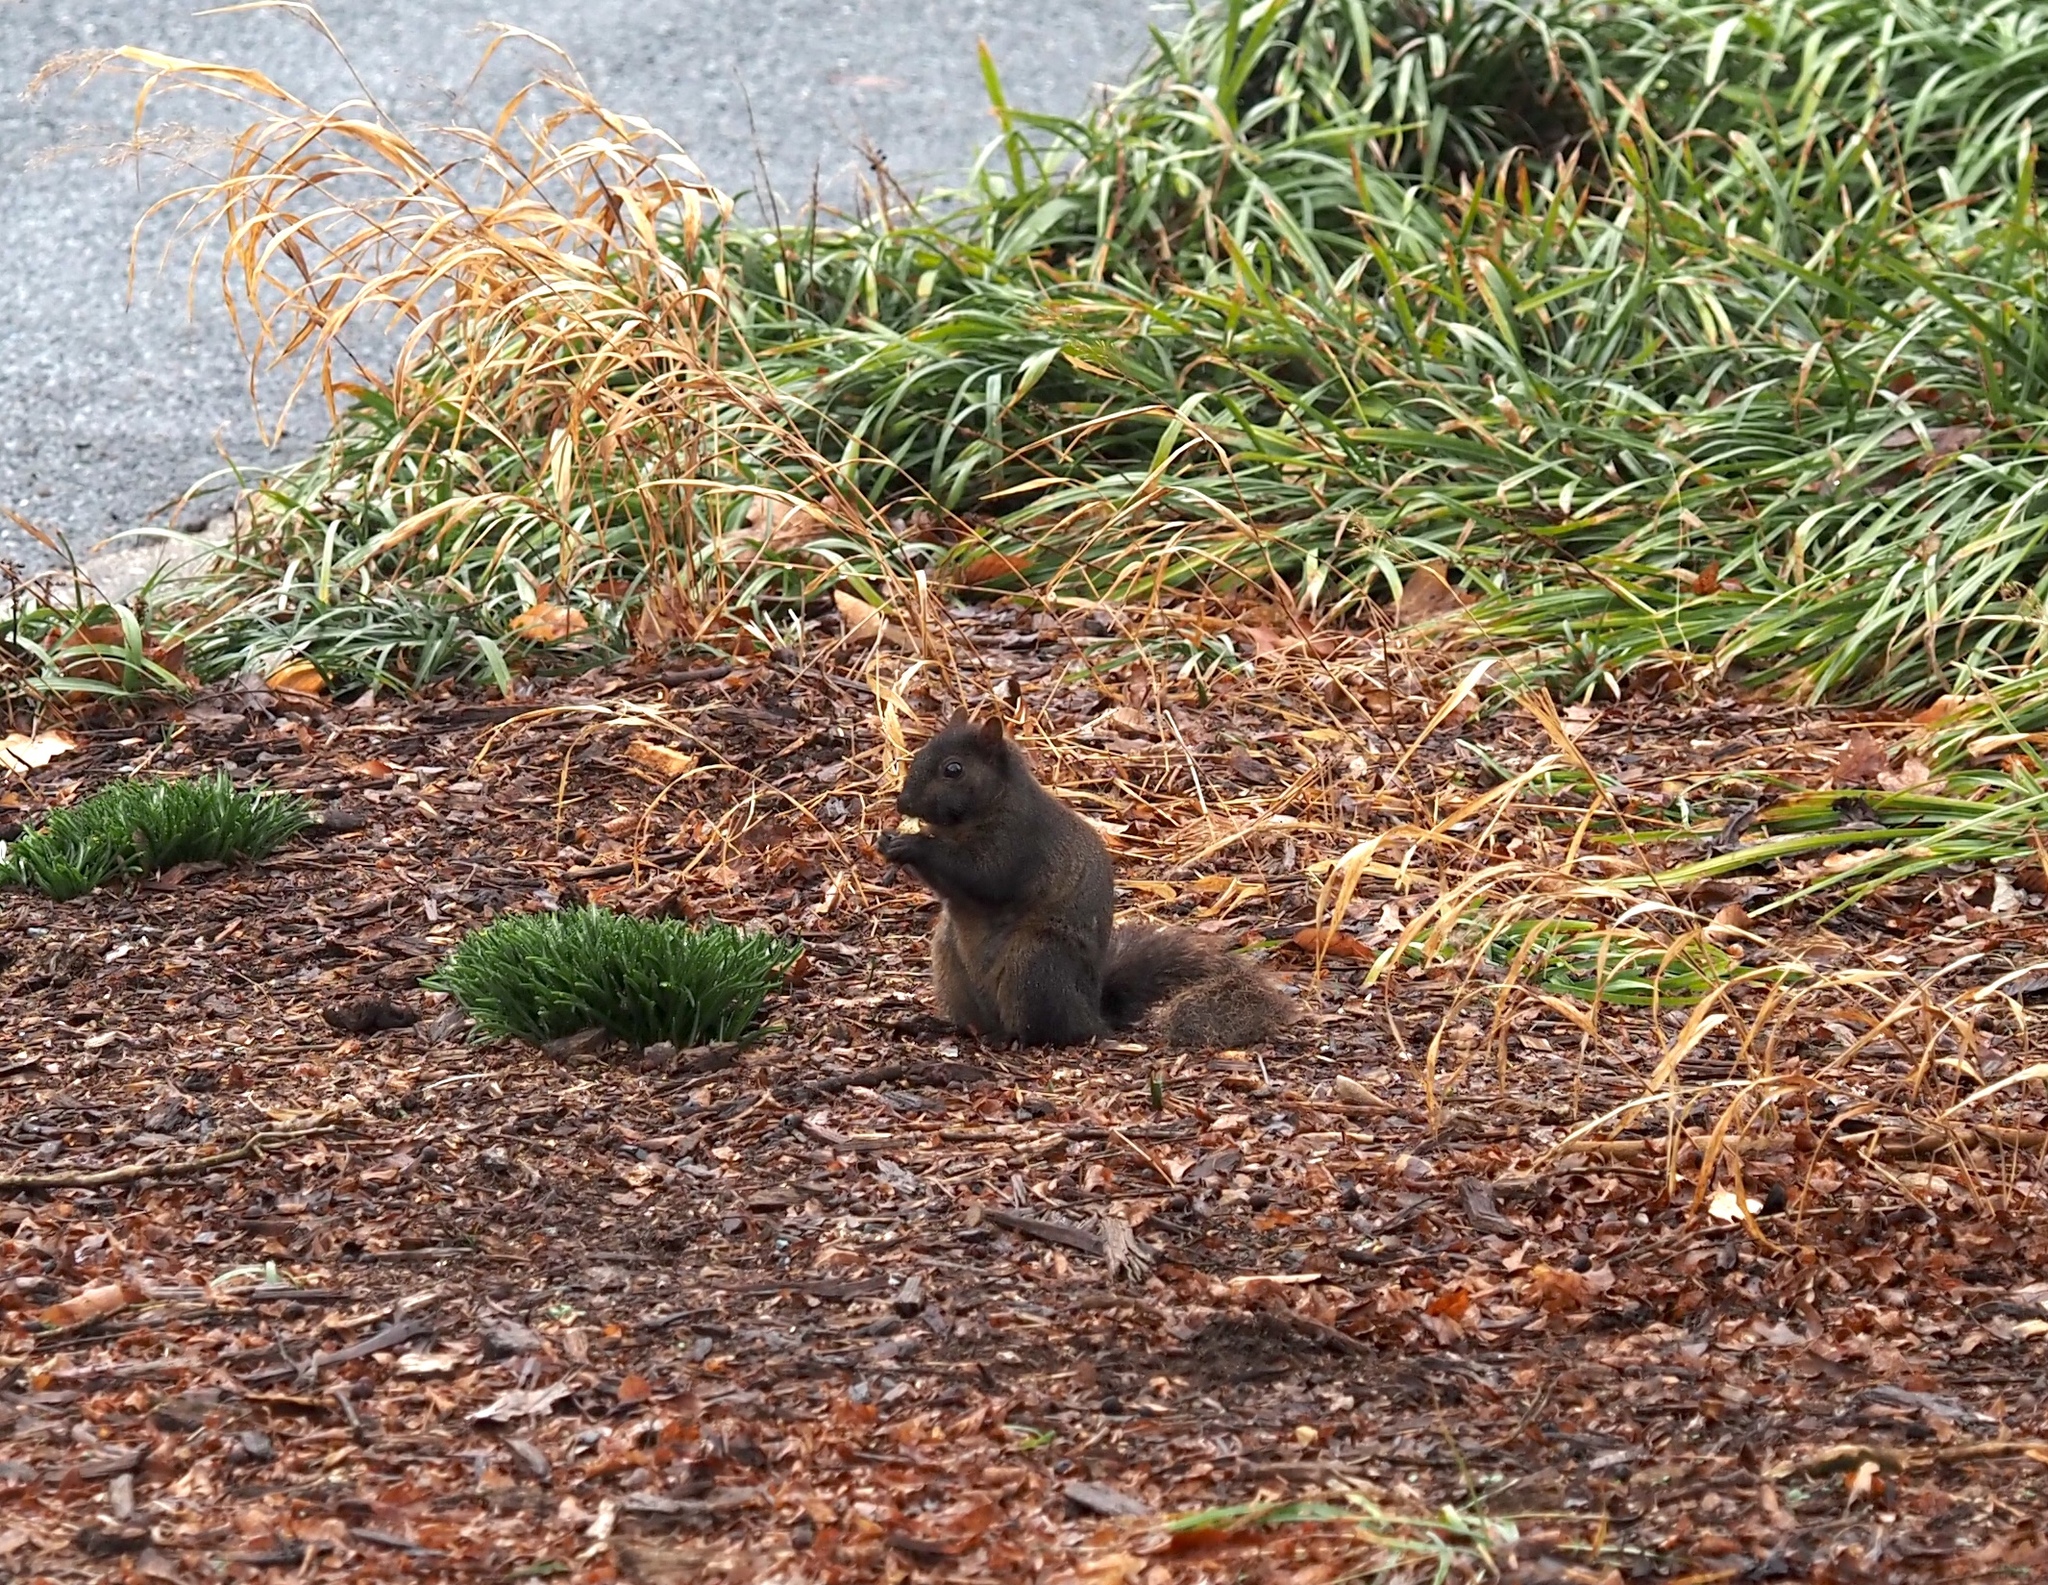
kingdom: Animalia
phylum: Chordata
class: Mammalia
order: Rodentia
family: Sciuridae
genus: Sciurus
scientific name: Sciurus carolinensis
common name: Eastern gray squirrel
